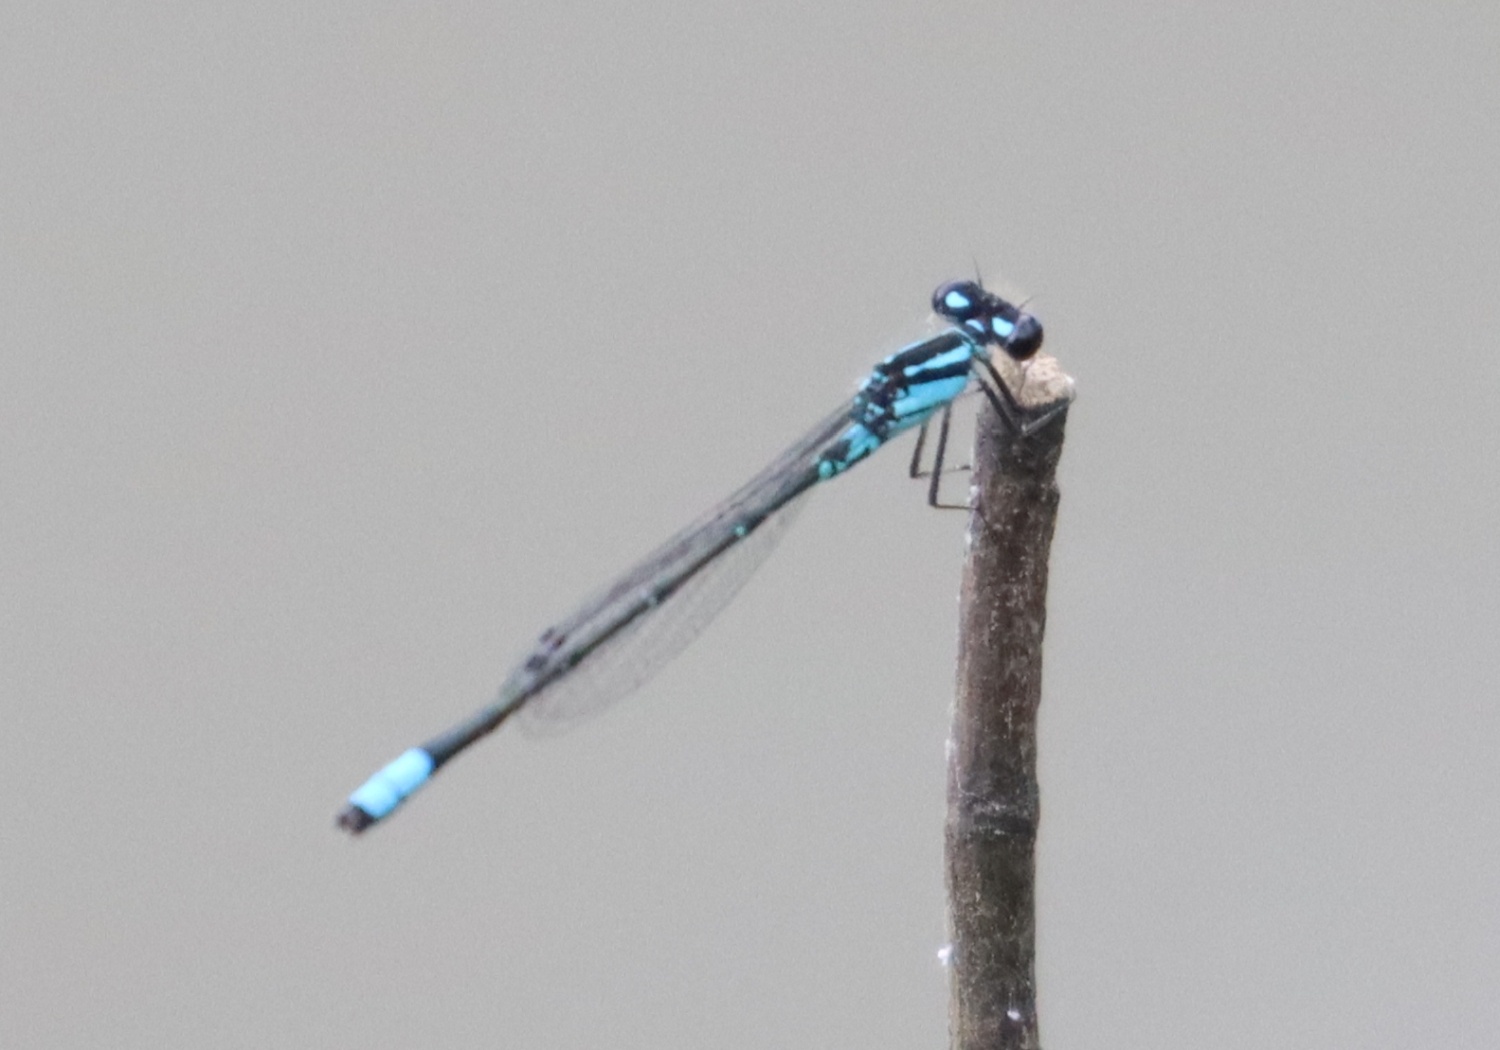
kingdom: Animalia
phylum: Arthropoda
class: Insecta
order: Odonata
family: Coenagrionidae
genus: Enallagma
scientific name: Enallagma geminatum
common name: Skimming bluet
